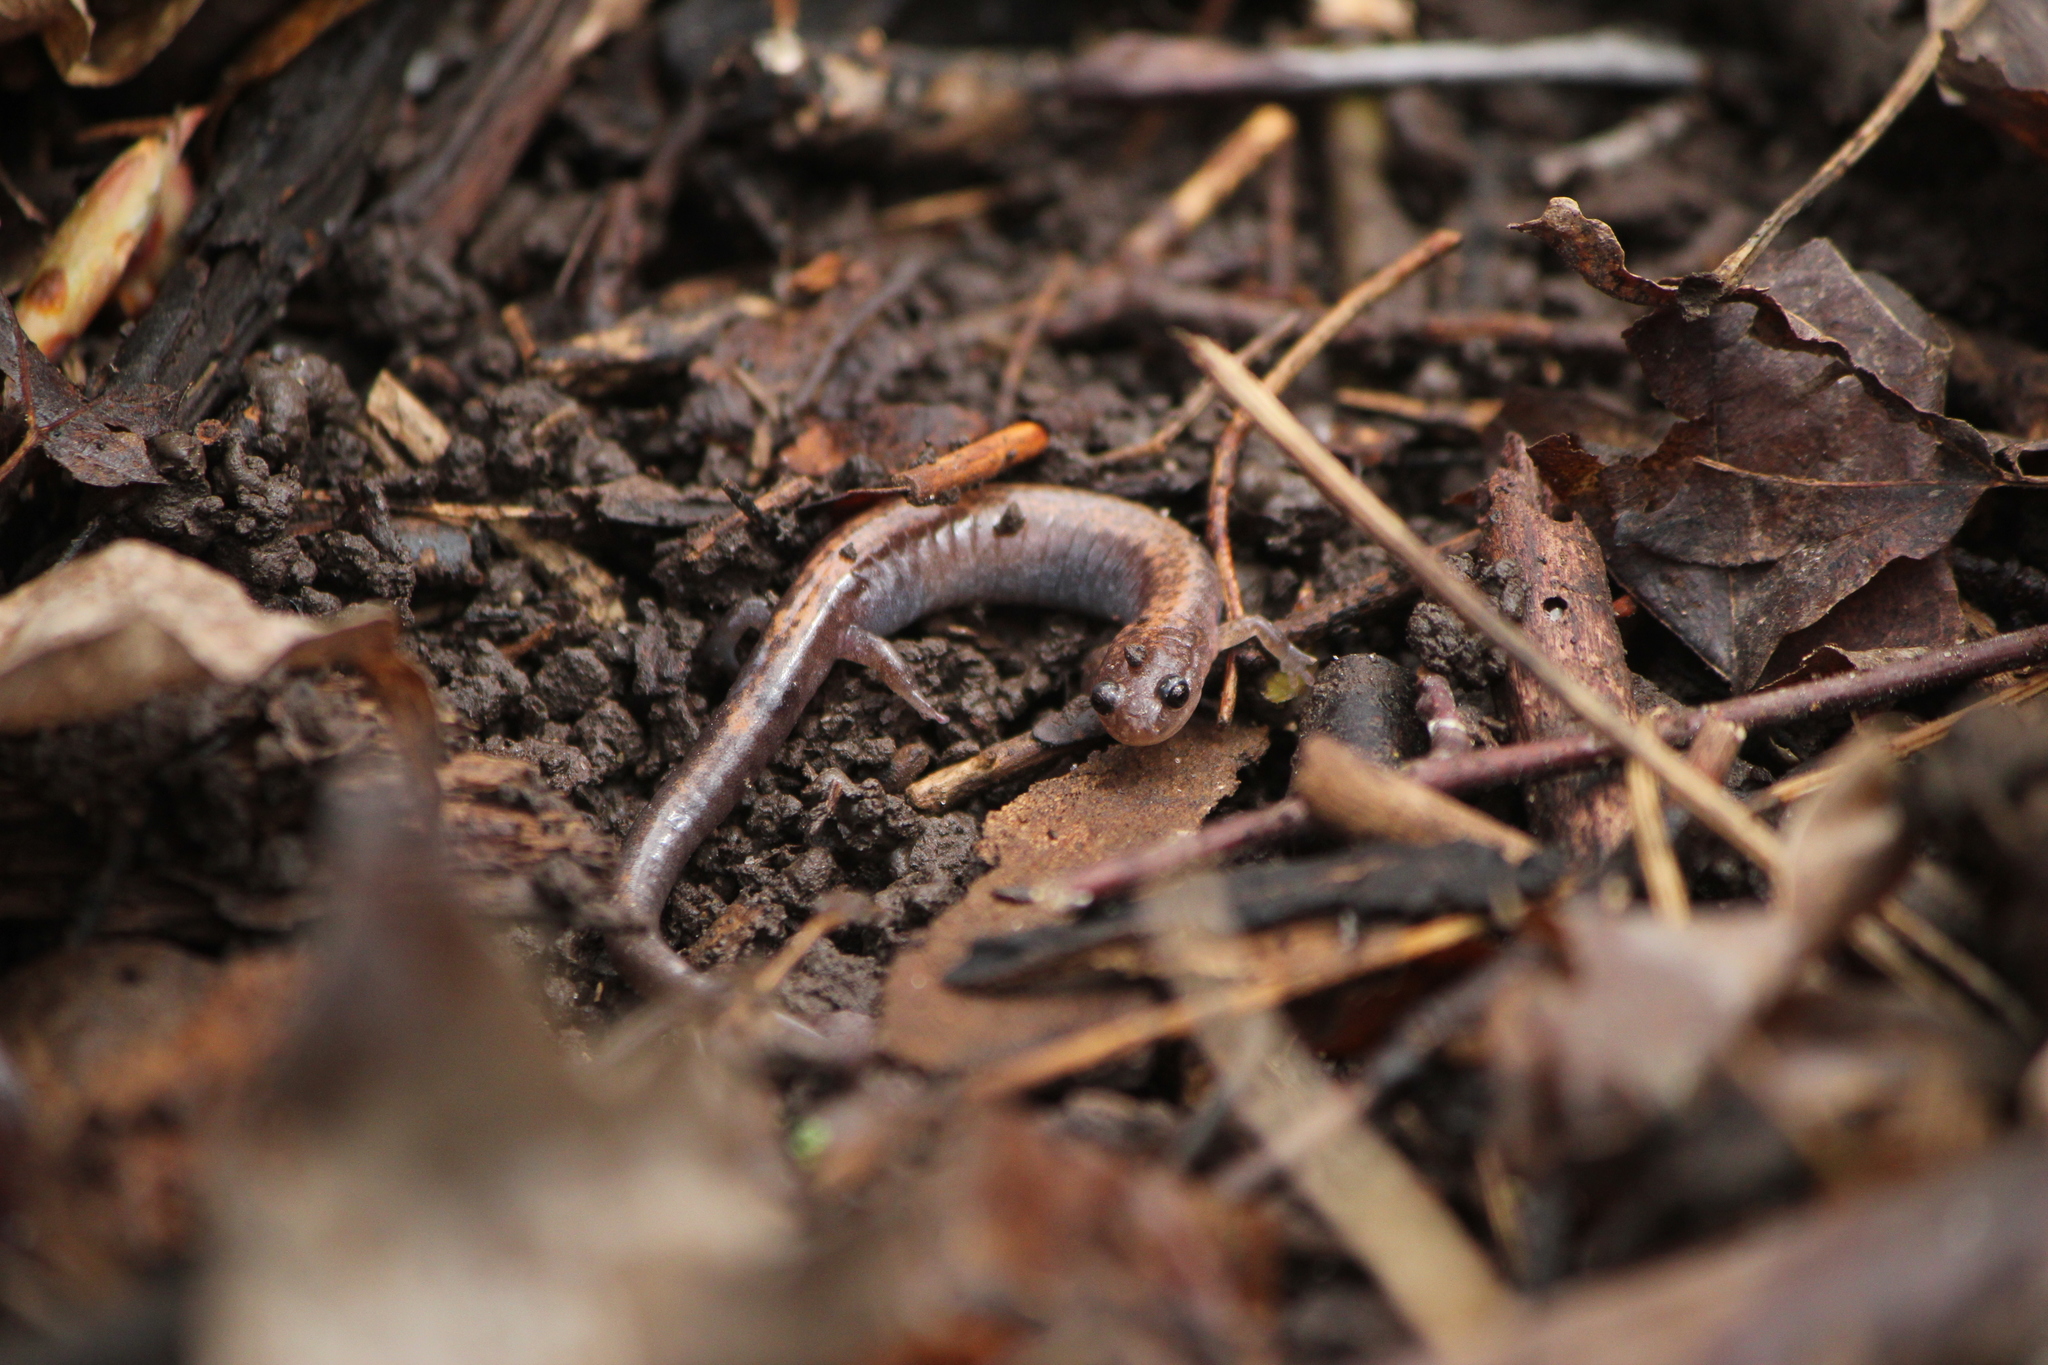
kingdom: Animalia
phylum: Chordata
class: Amphibia
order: Caudata
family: Plethodontidae
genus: Plethodon
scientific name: Plethodon cinereus
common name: Redback salamander
